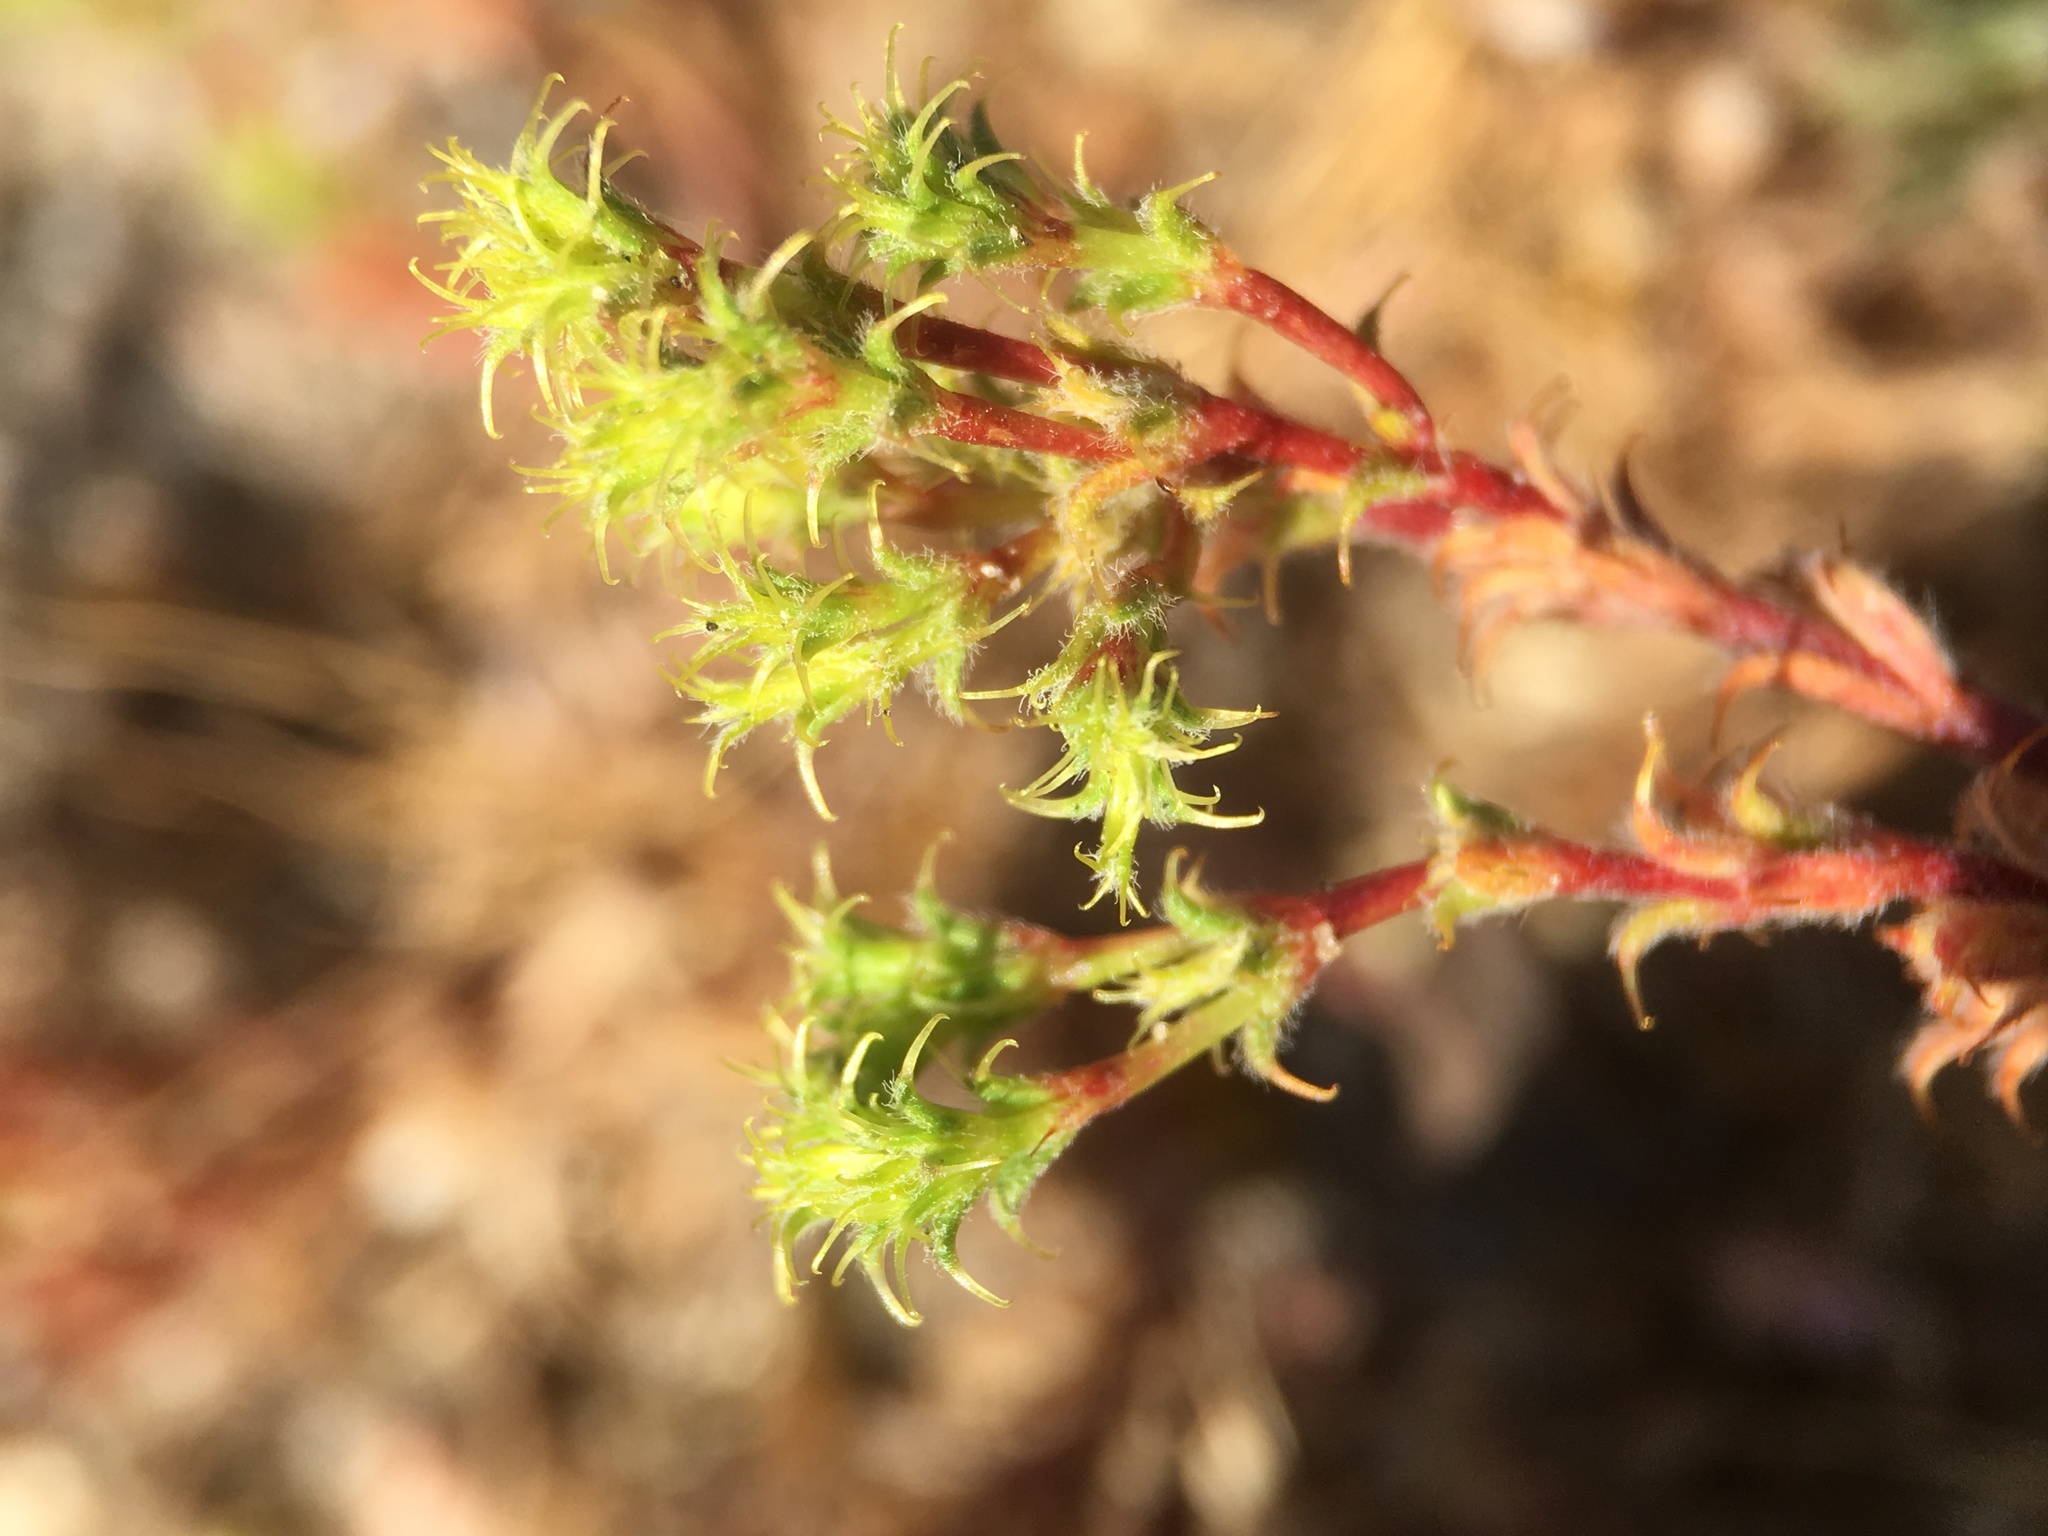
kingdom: Plantae
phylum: Tracheophyta
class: Magnoliopsida
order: Caryophyllales
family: Polygonaceae
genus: Lastarriaea
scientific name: Lastarriaea coriacea
